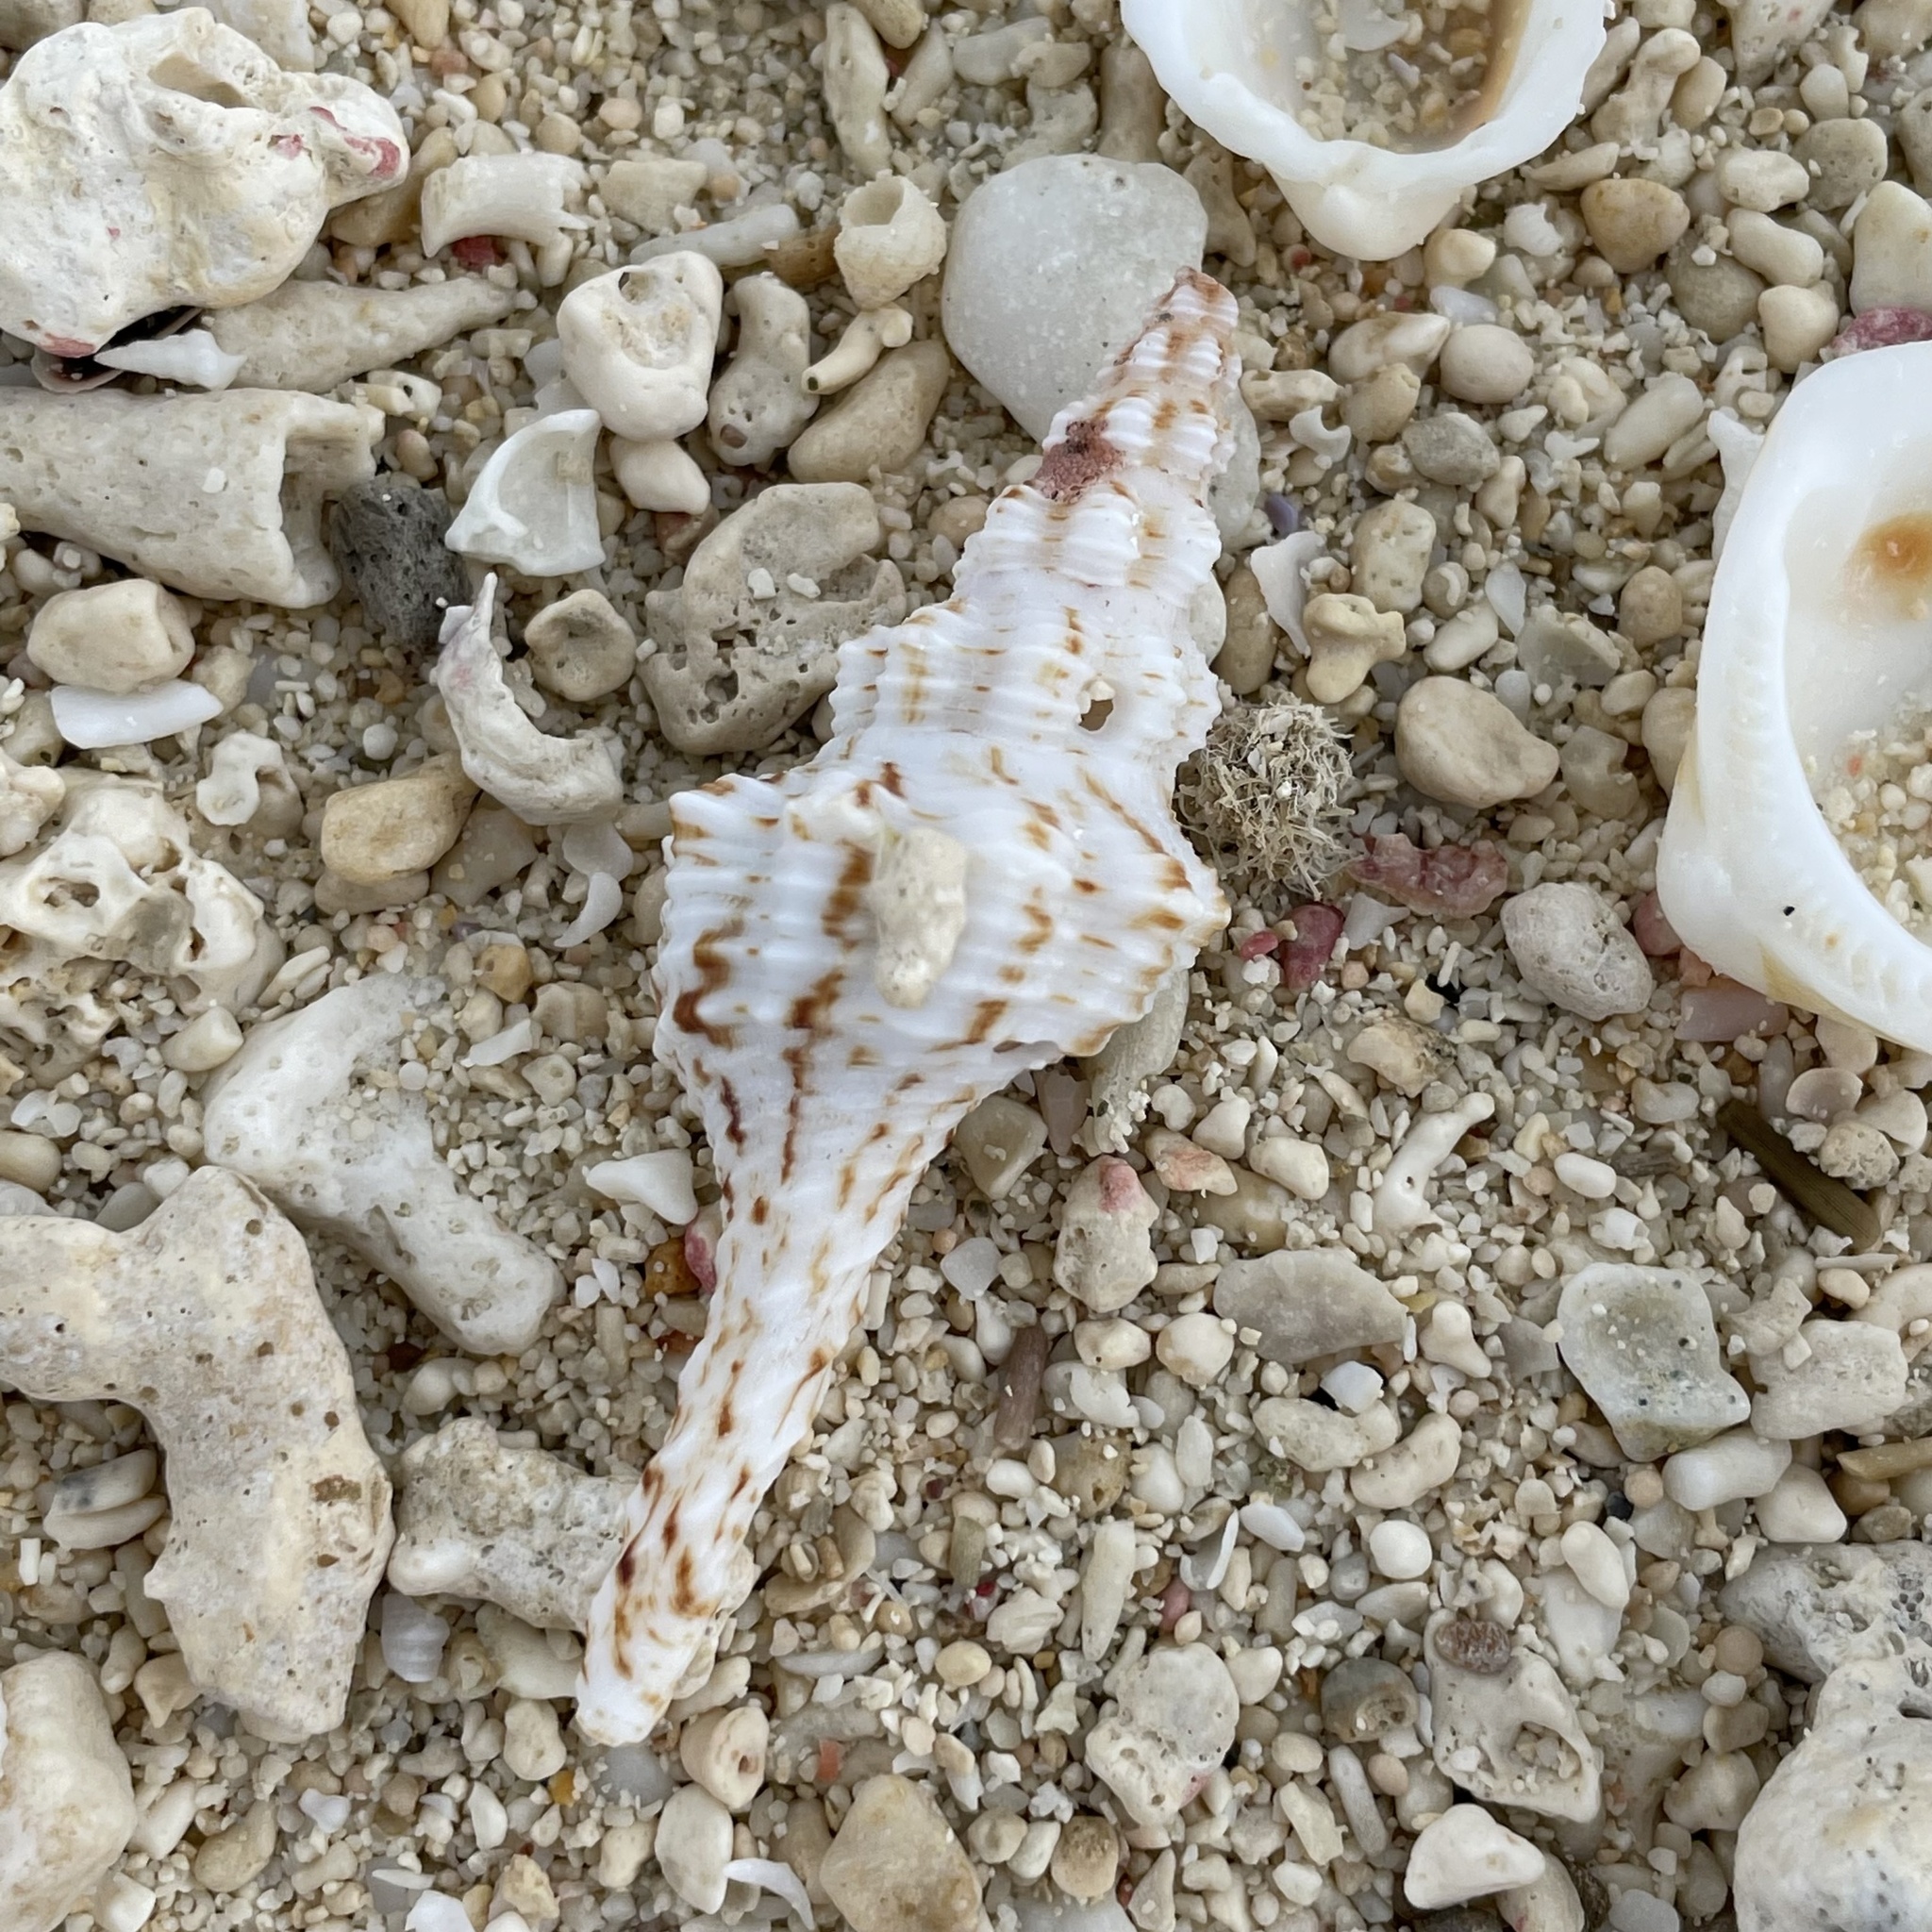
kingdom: Animalia
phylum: Mollusca
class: Gastropoda
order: Neogastropoda
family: Fasciolariidae
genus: Marmorofusus
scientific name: Marmorofusus nicobaricus
